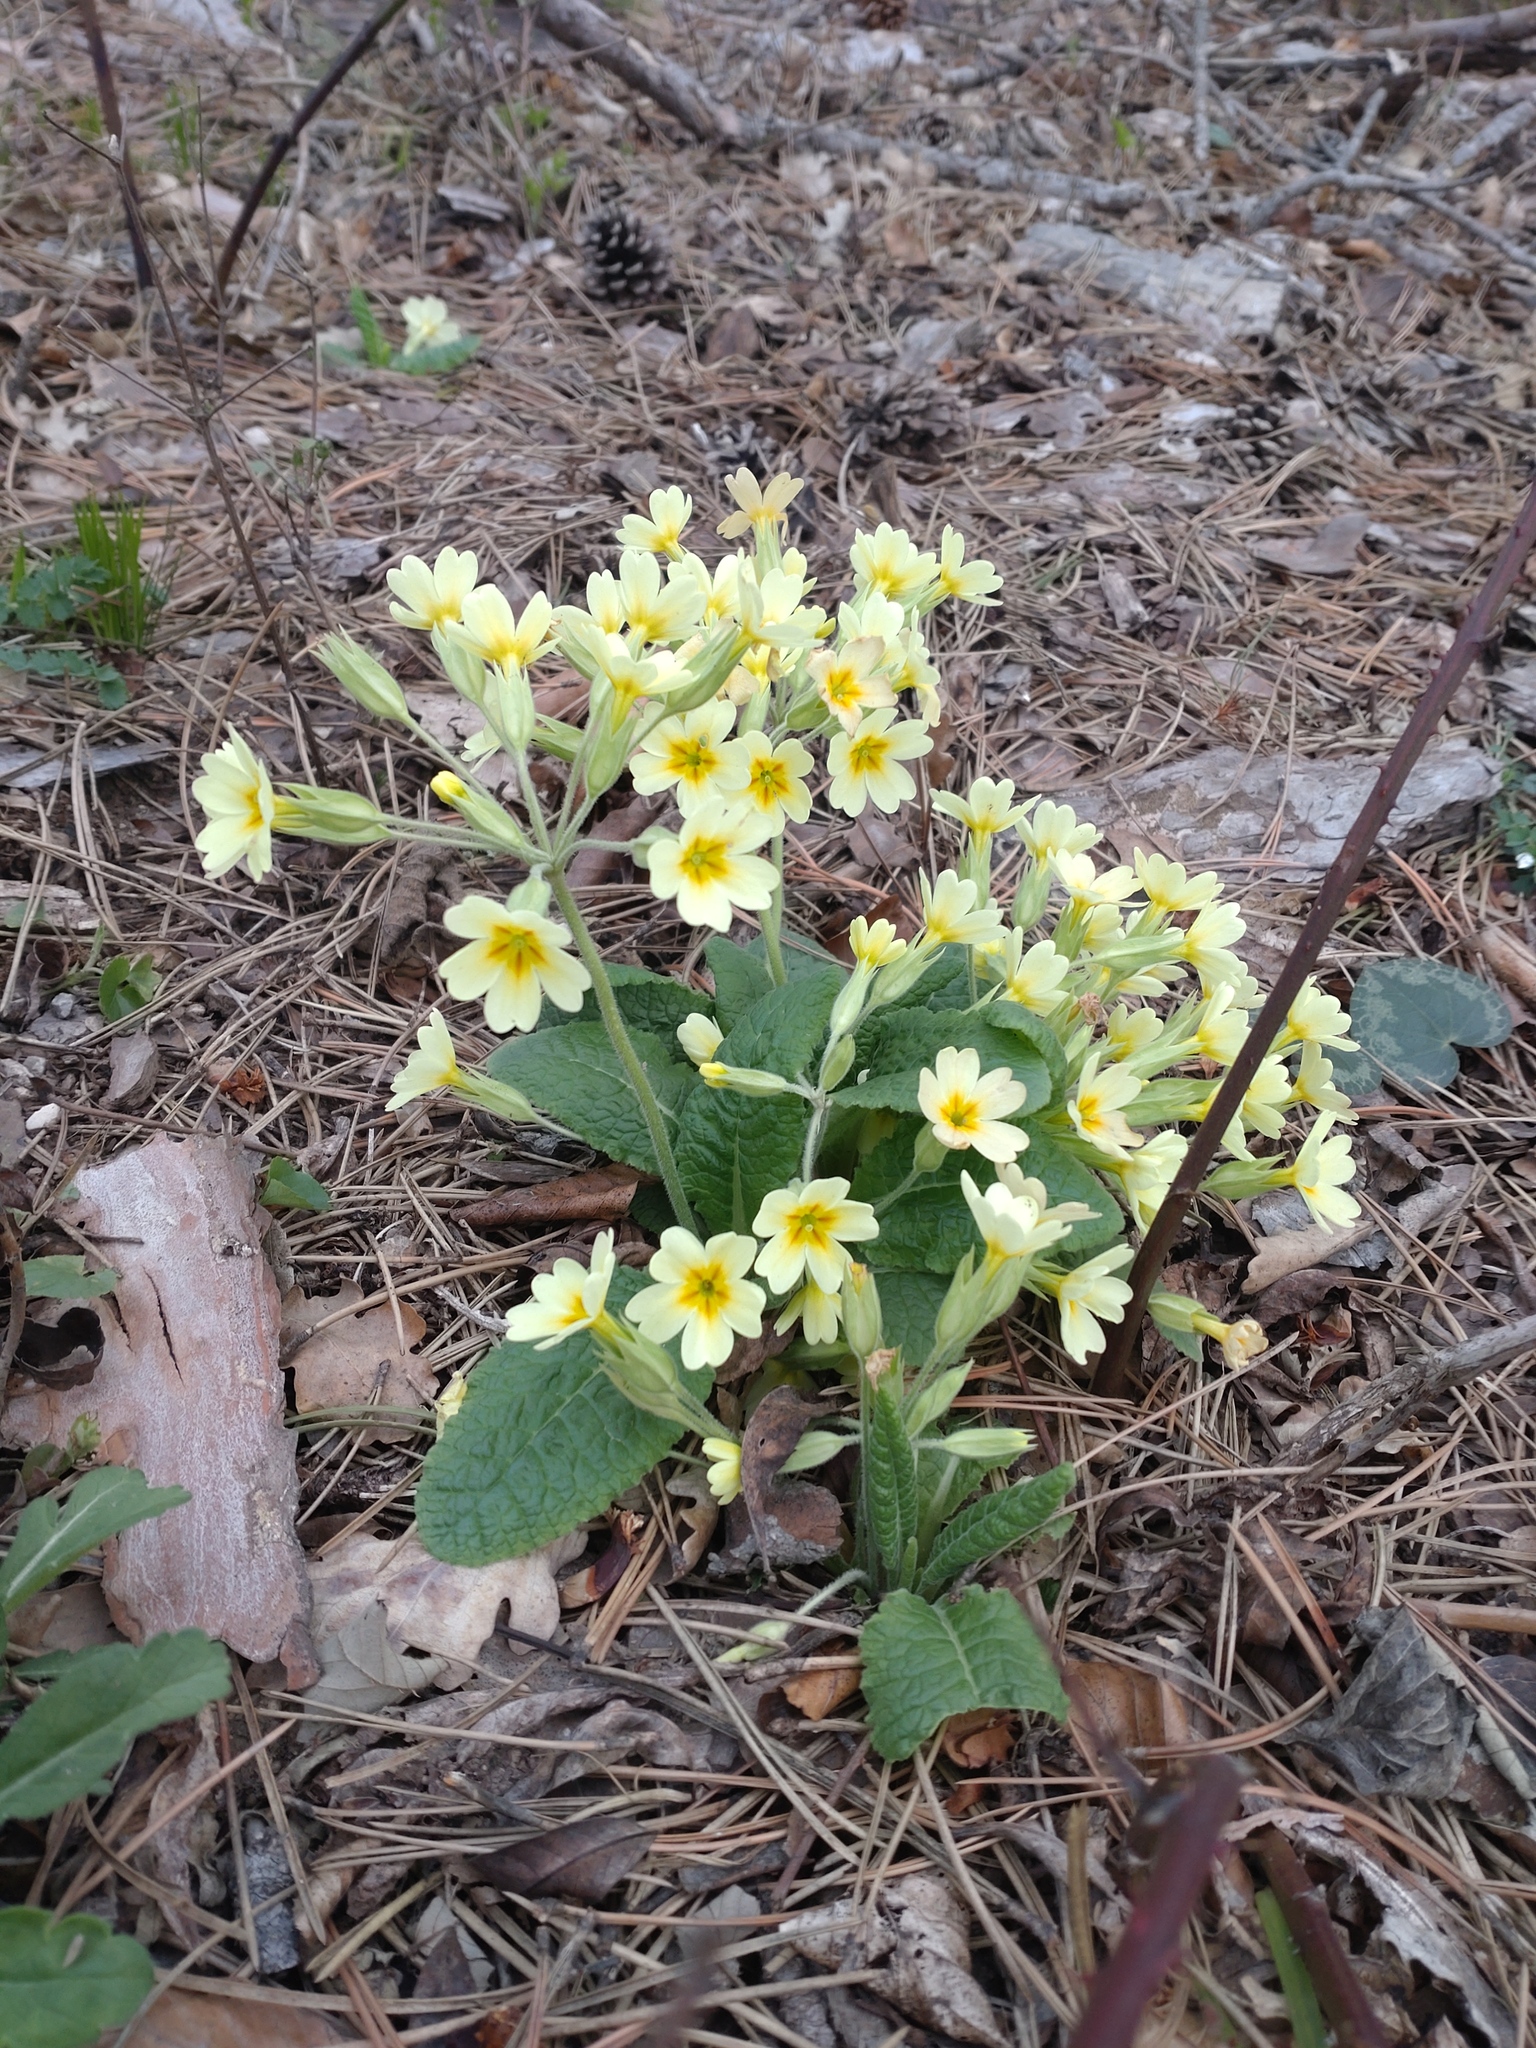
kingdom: Plantae
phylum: Tracheophyta
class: Magnoliopsida
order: Ericales
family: Primulaceae
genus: Primula
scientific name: Primula polyantha
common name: False oxlip
